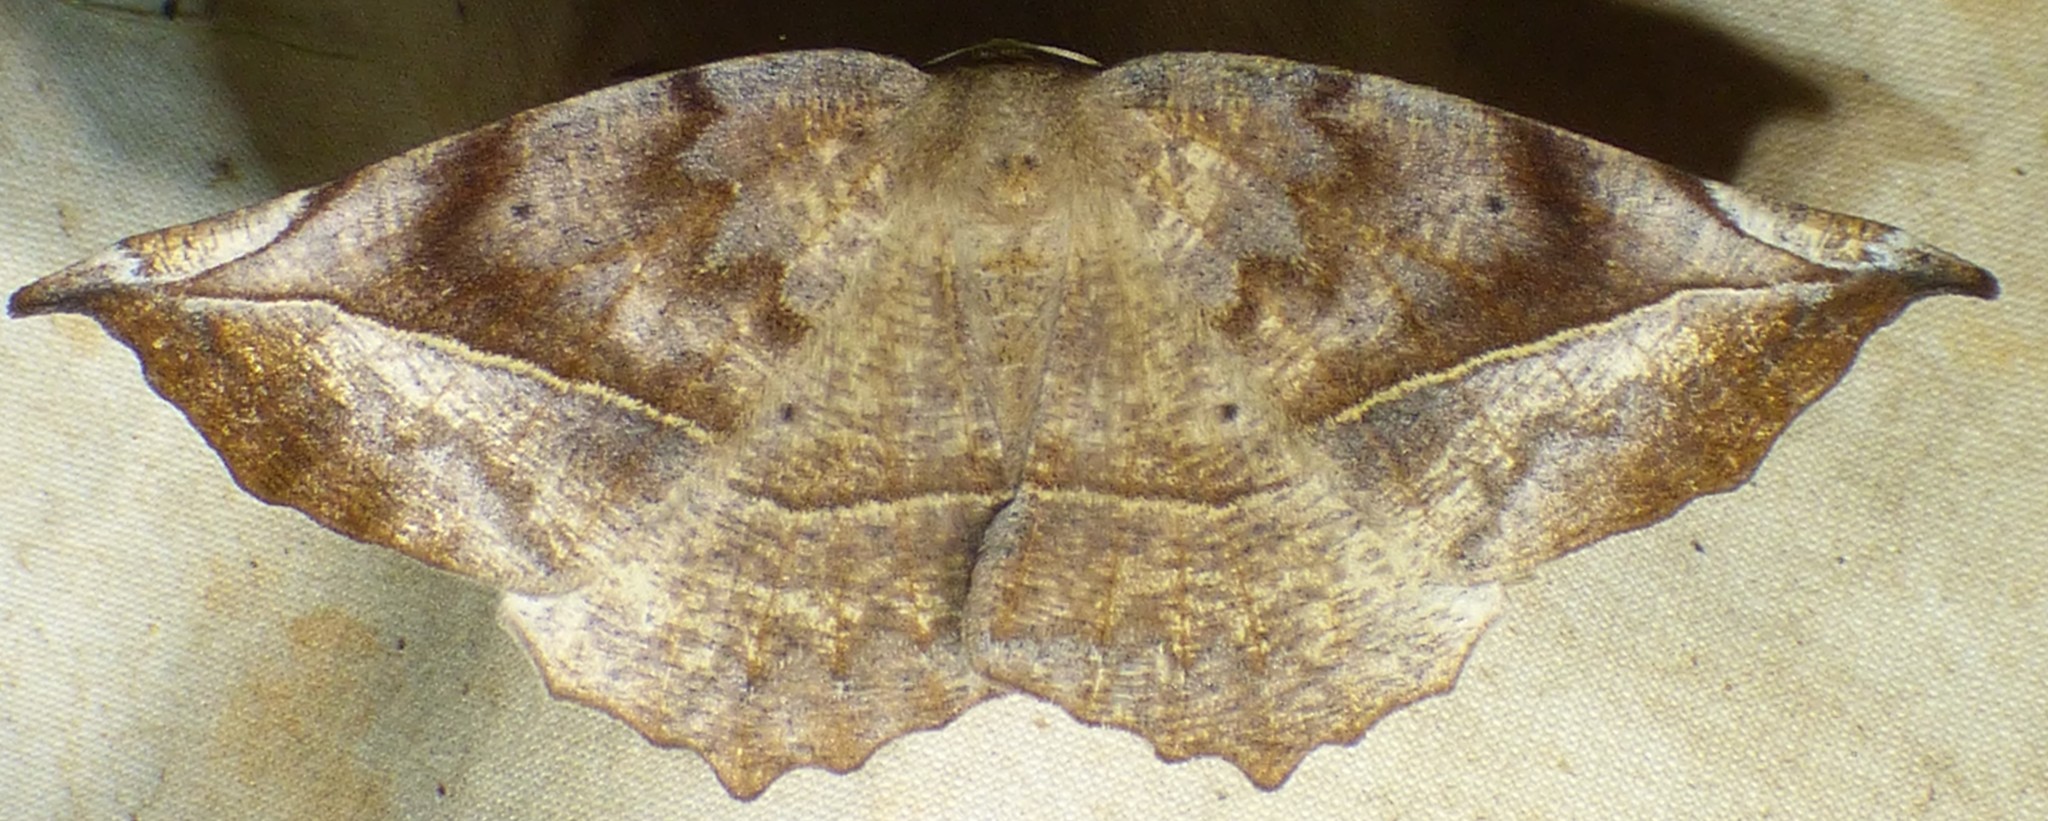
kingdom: Animalia
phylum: Arthropoda
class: Insecta
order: Lepidoptera
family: Geometridae
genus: Eutrapela
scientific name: Eutrapela clemataria
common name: Curved-toothed geometer
